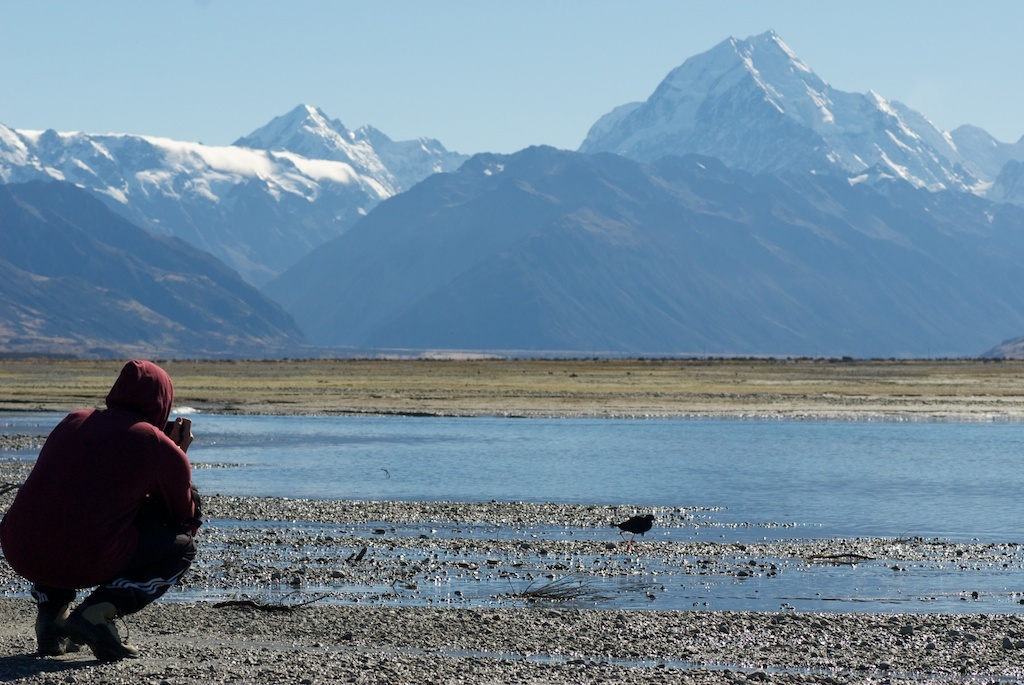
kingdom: Animalia
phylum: Chordata
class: Aves
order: Charadriiformes
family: Recurvirostridae
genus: Himantopus
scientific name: Himantopus novaezelandiae
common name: Black stilt
